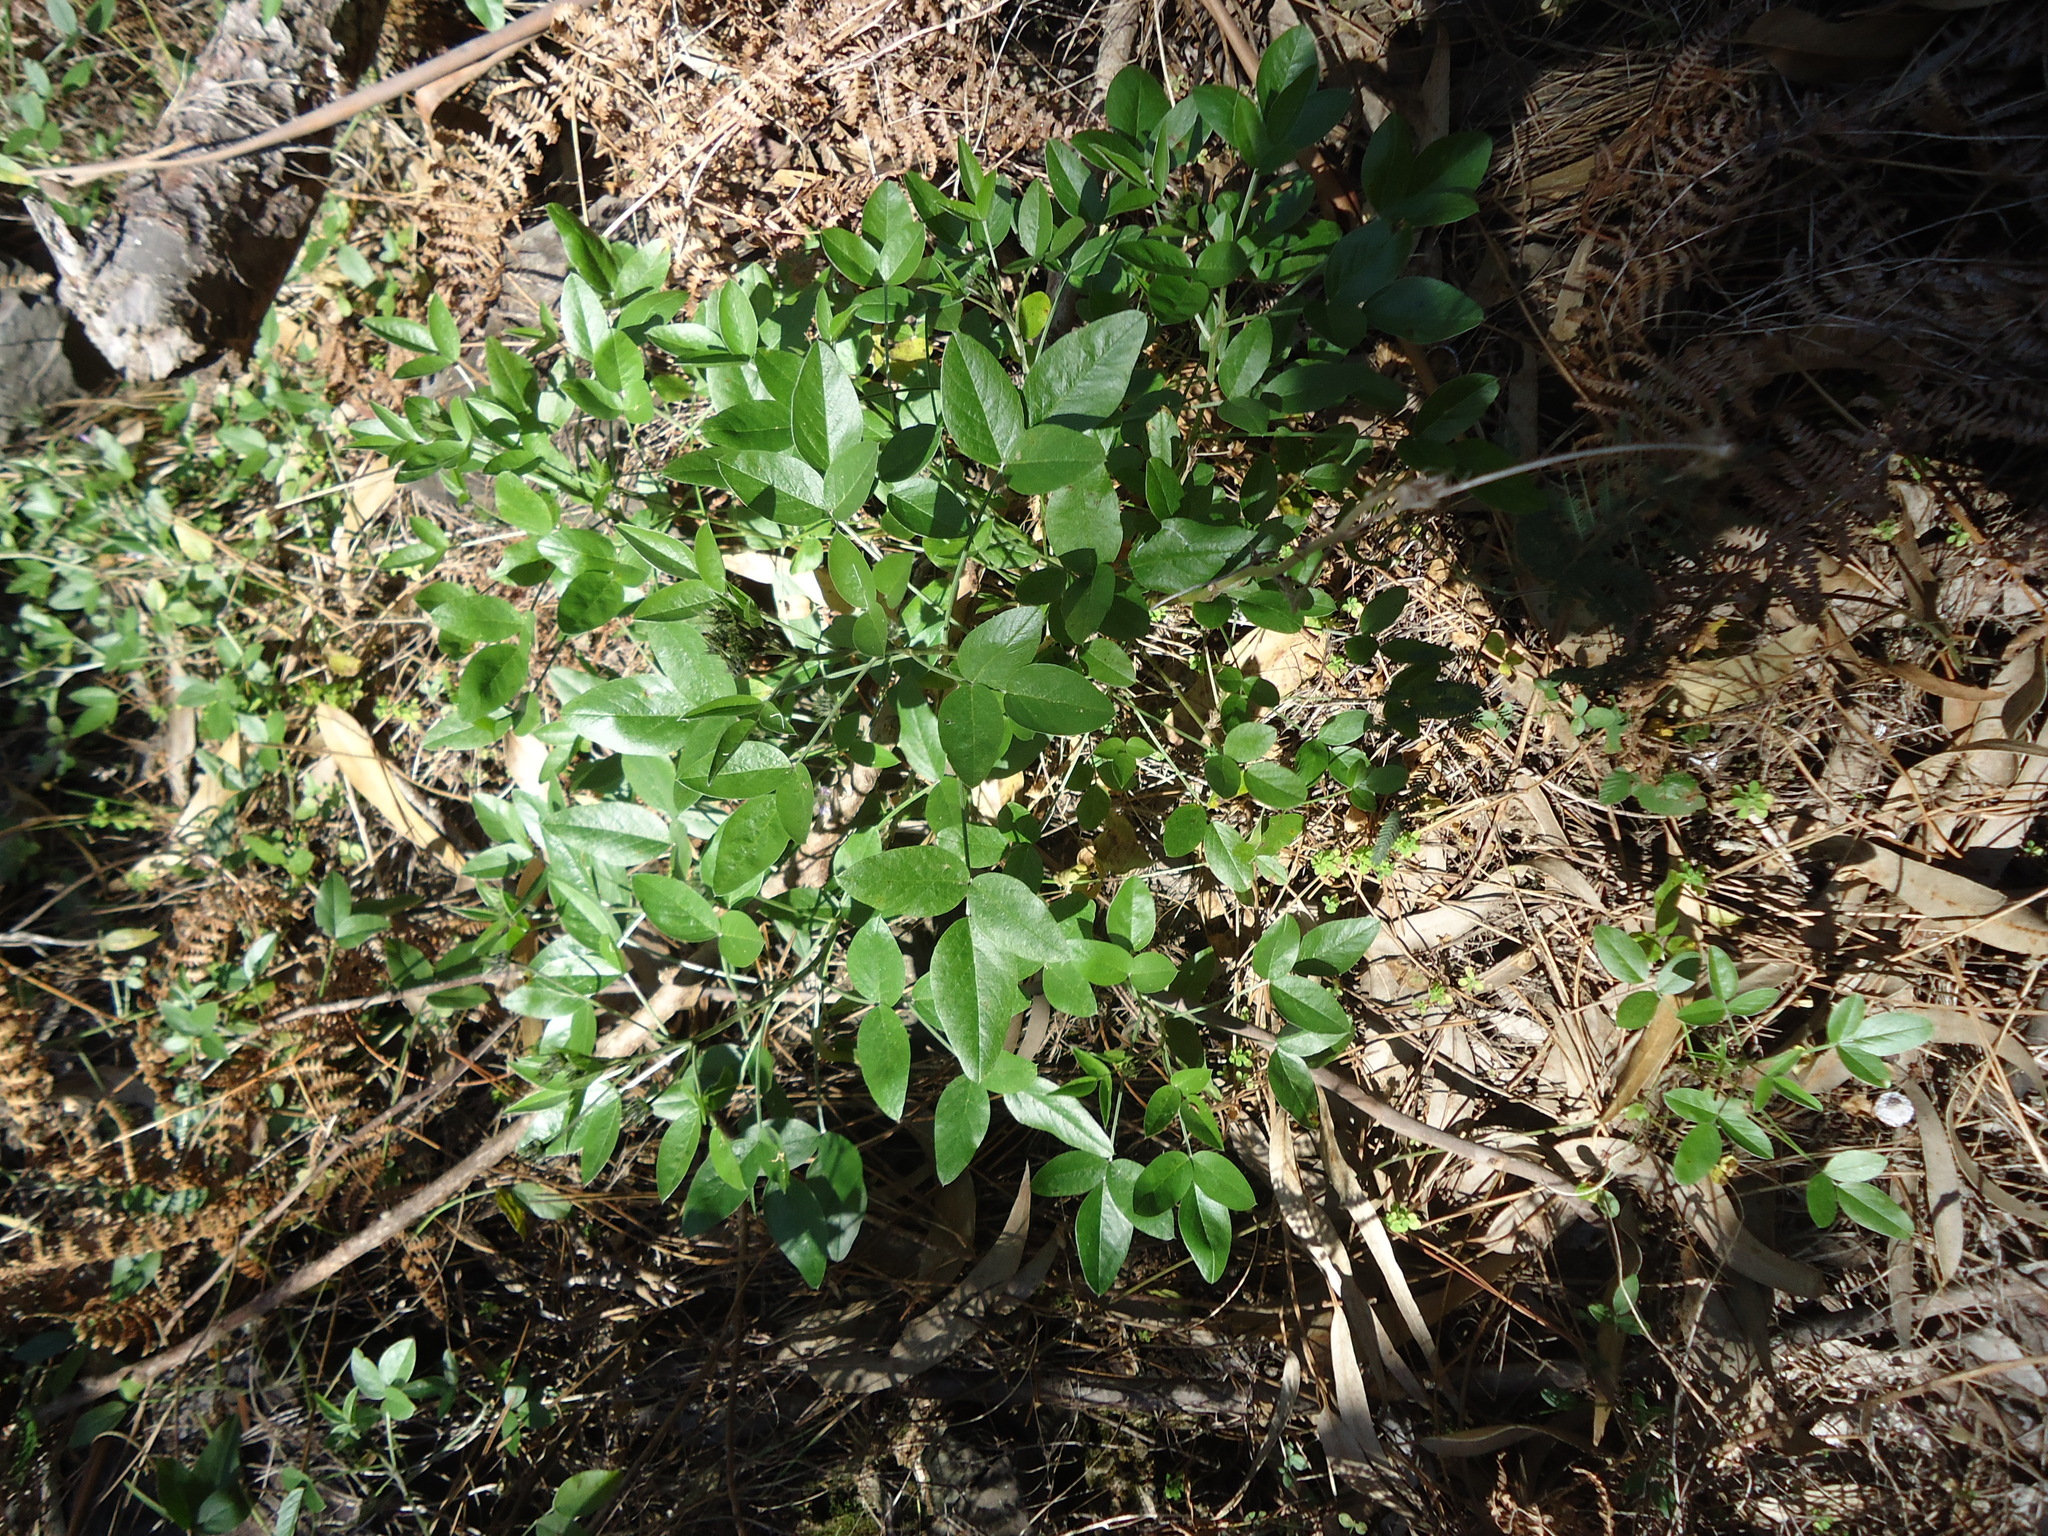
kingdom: Plantae
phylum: Tracheophyta
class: Magnoliopsida
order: Fabales
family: Fabaceae
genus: Bituminaria
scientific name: Bituminaria bituminosa
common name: Arabian pea
